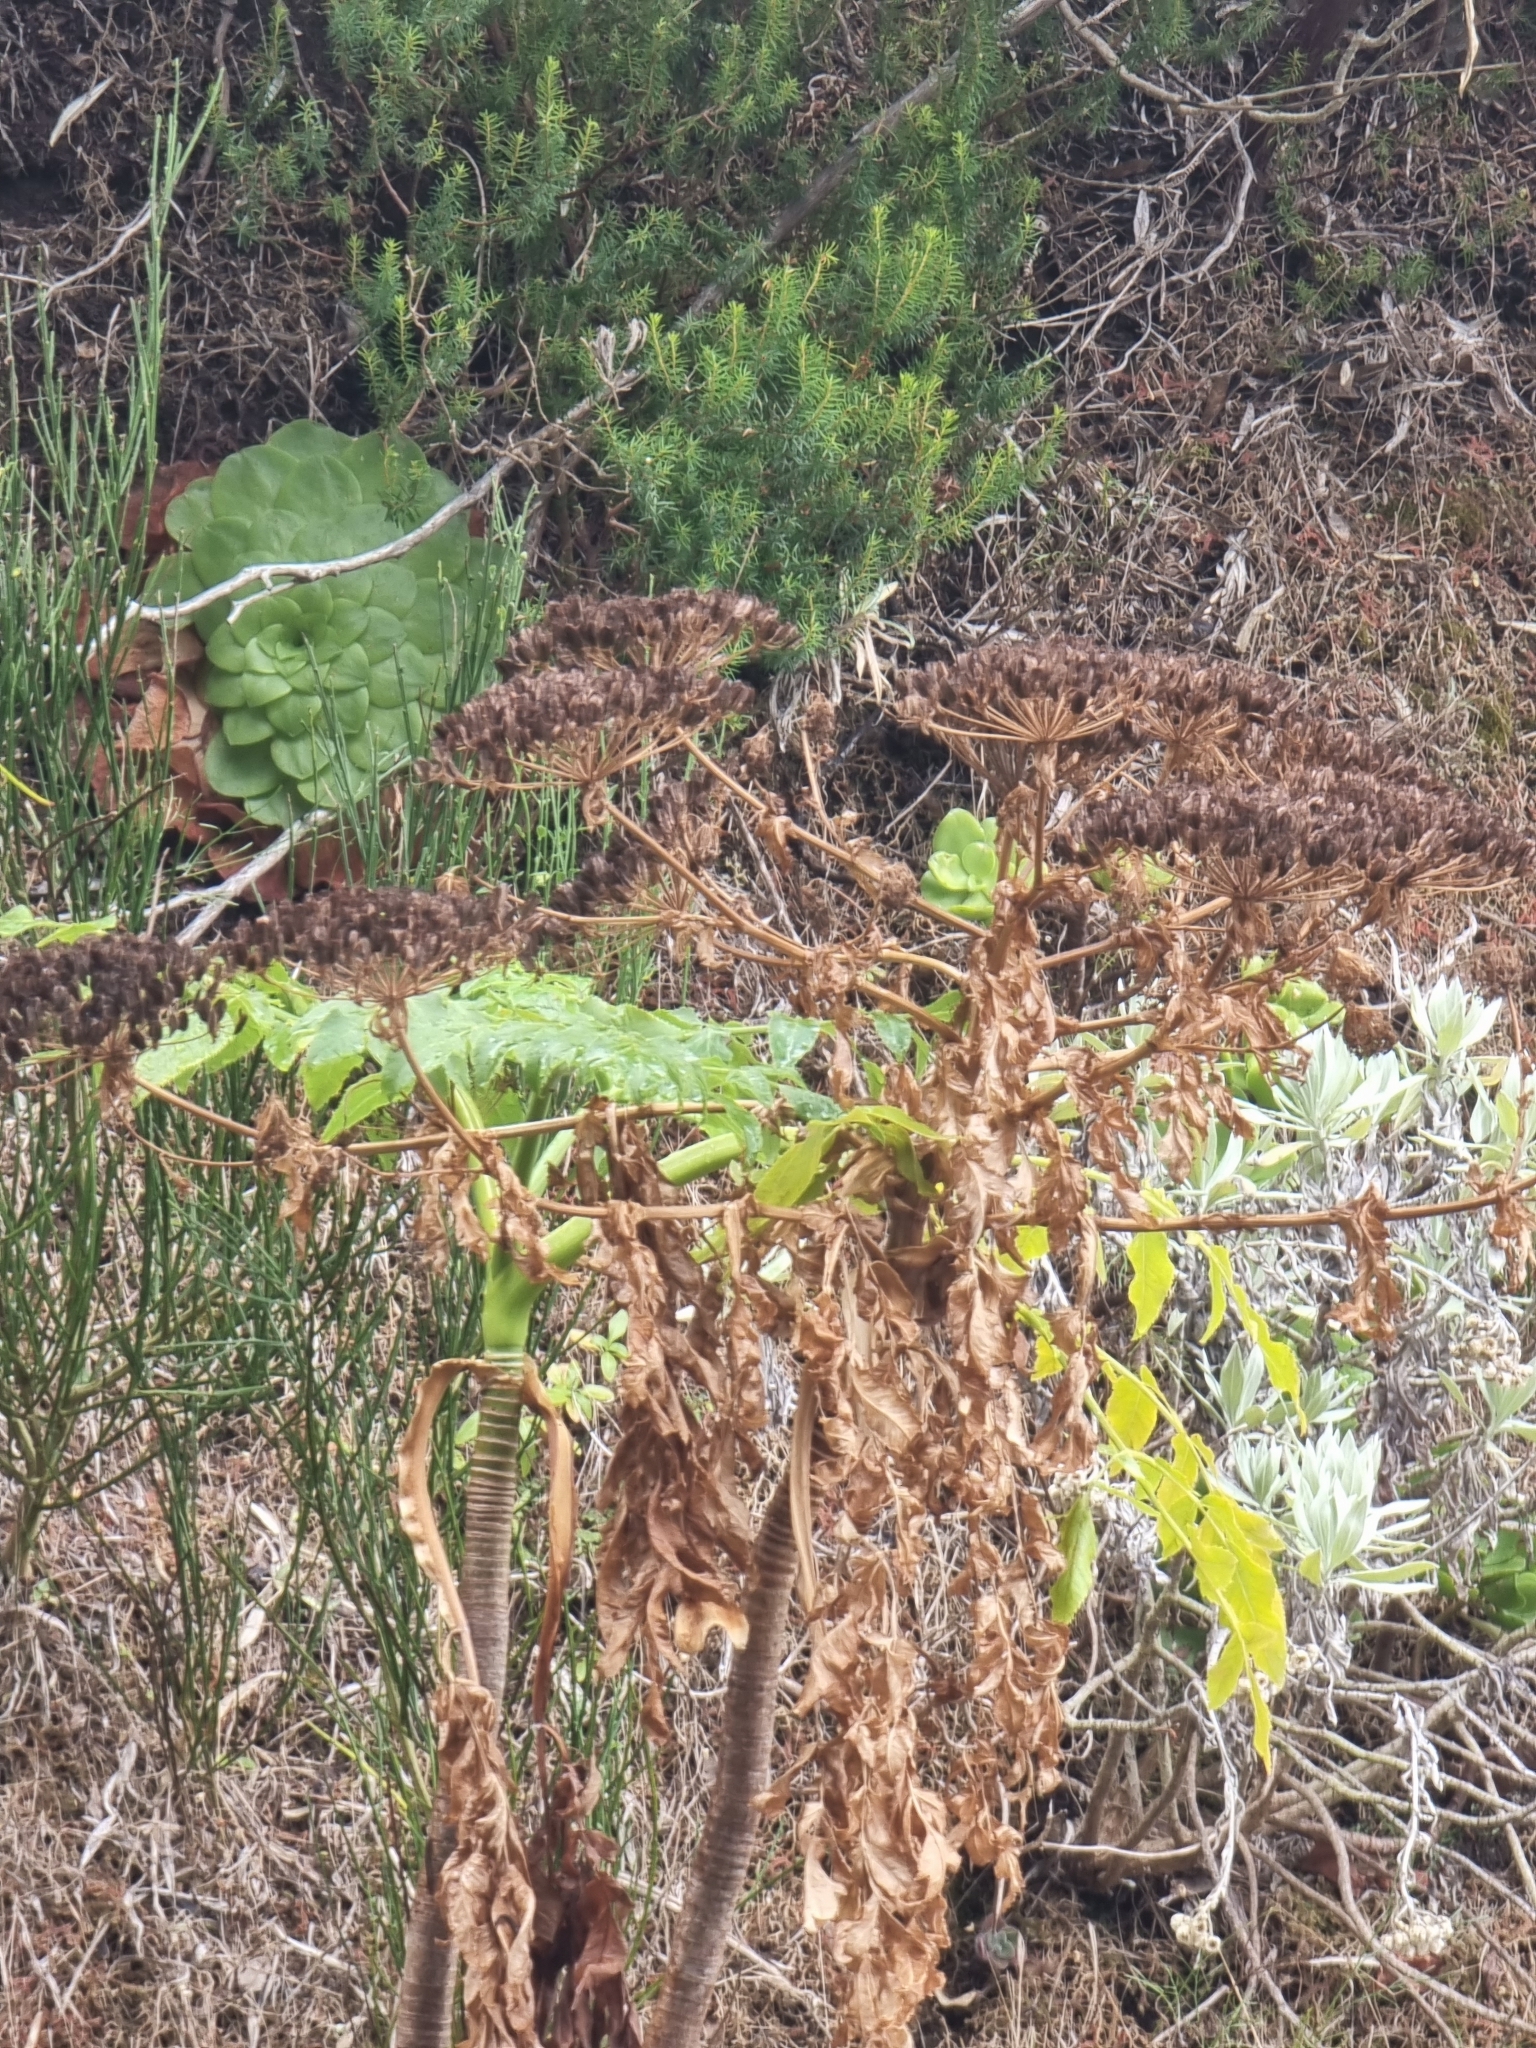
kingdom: Plantae
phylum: Tracheophyta
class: Magnoliopsida
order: Apiales
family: Apiaceae
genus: Daucus
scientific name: Daucus decipiens
